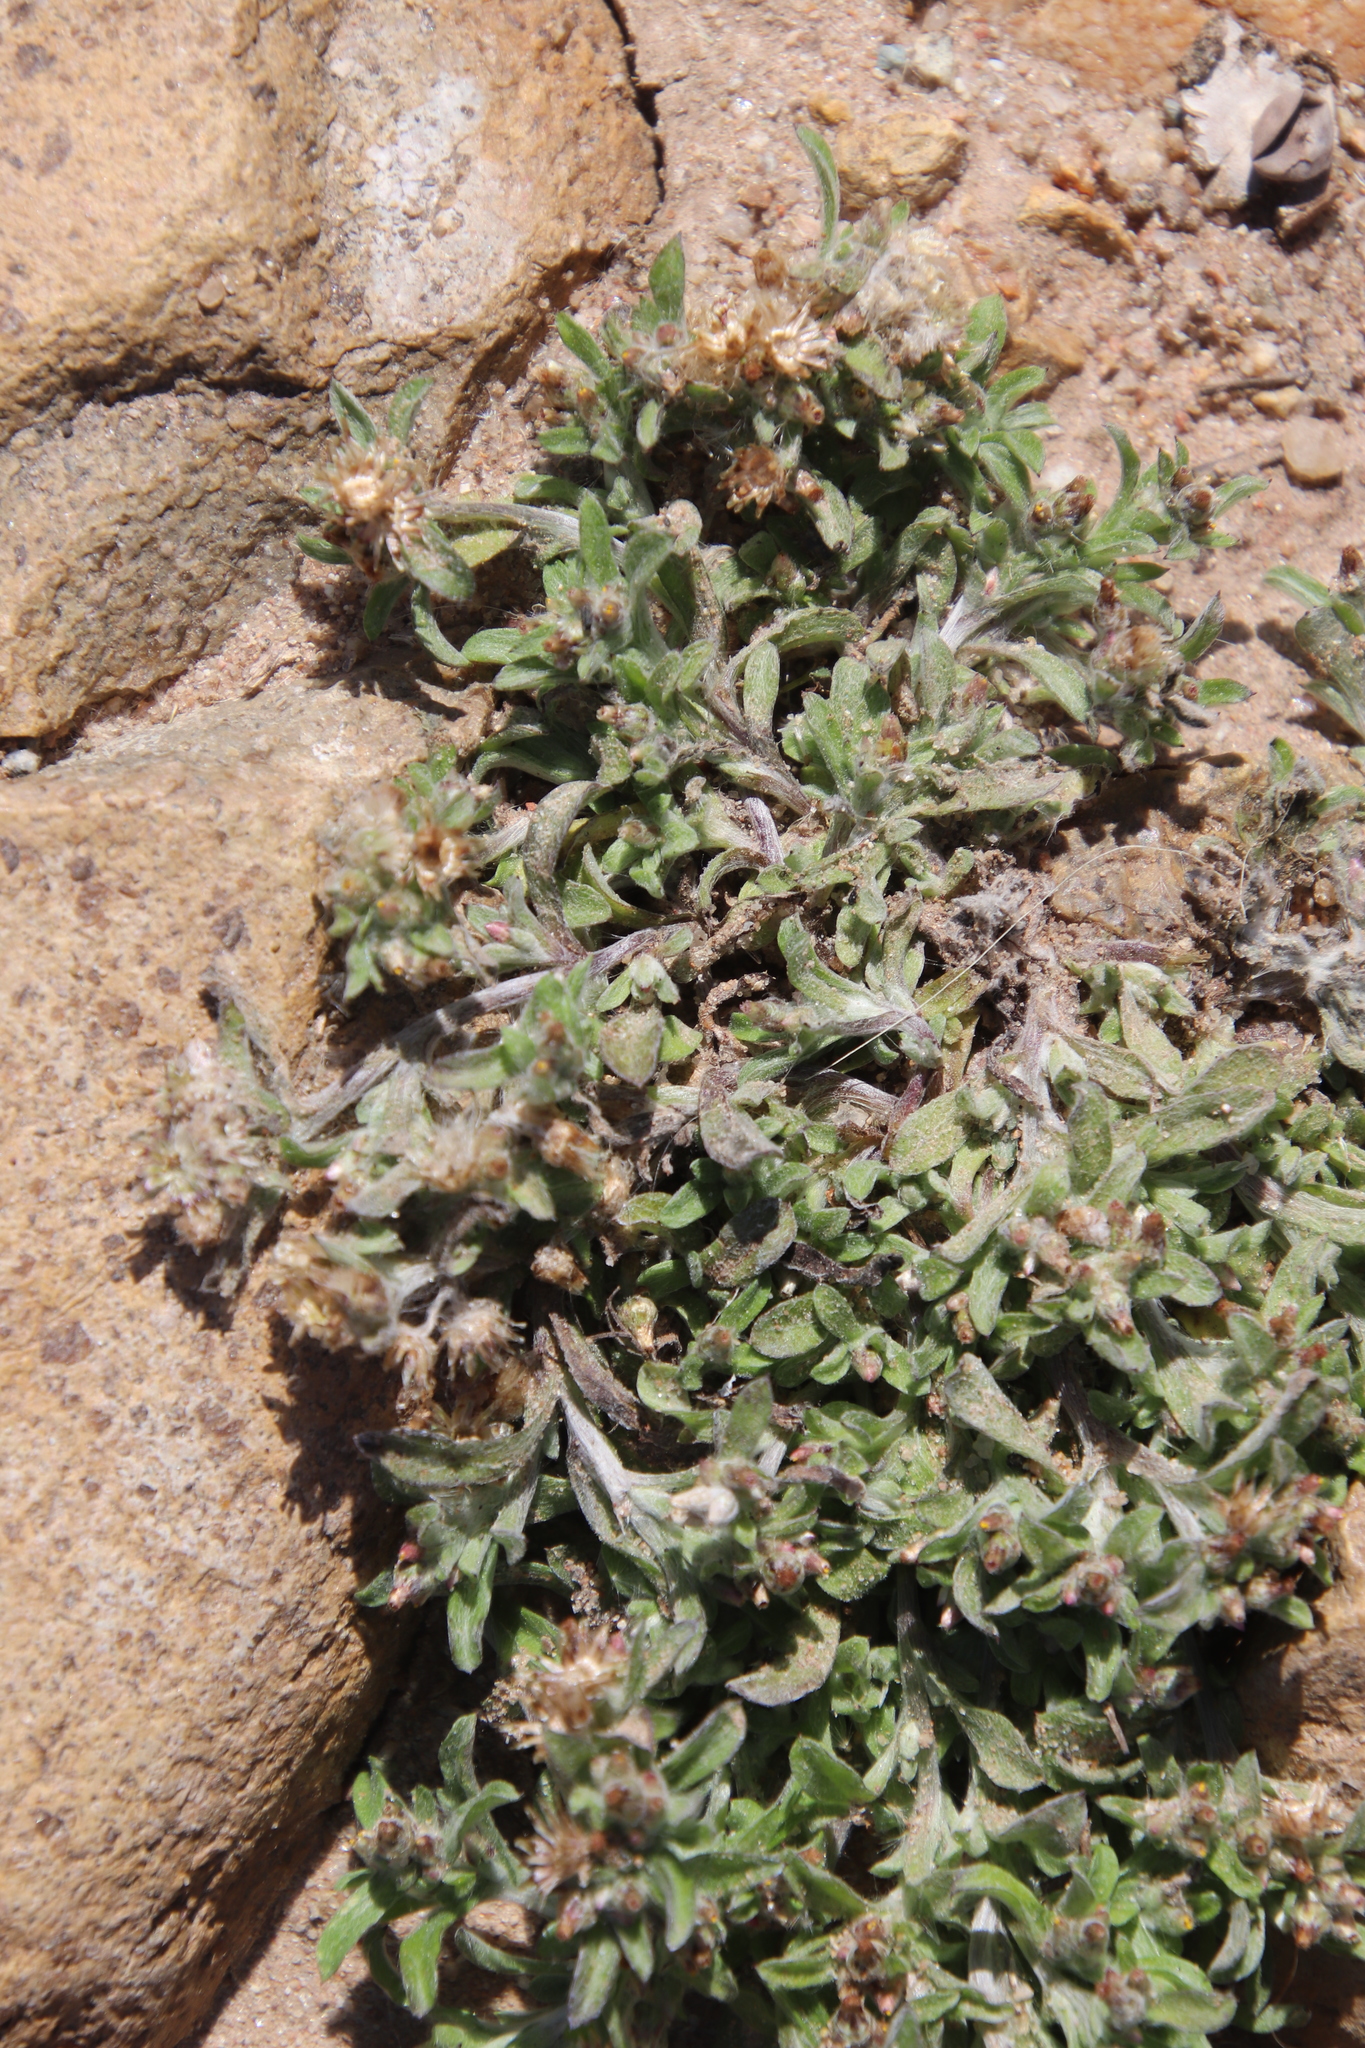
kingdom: Plantae
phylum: Tracheophyta
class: Magnoliopsida
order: Asterales
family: Asteraceae
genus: Gamochaeta
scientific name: Gamochaeta stagnalis
